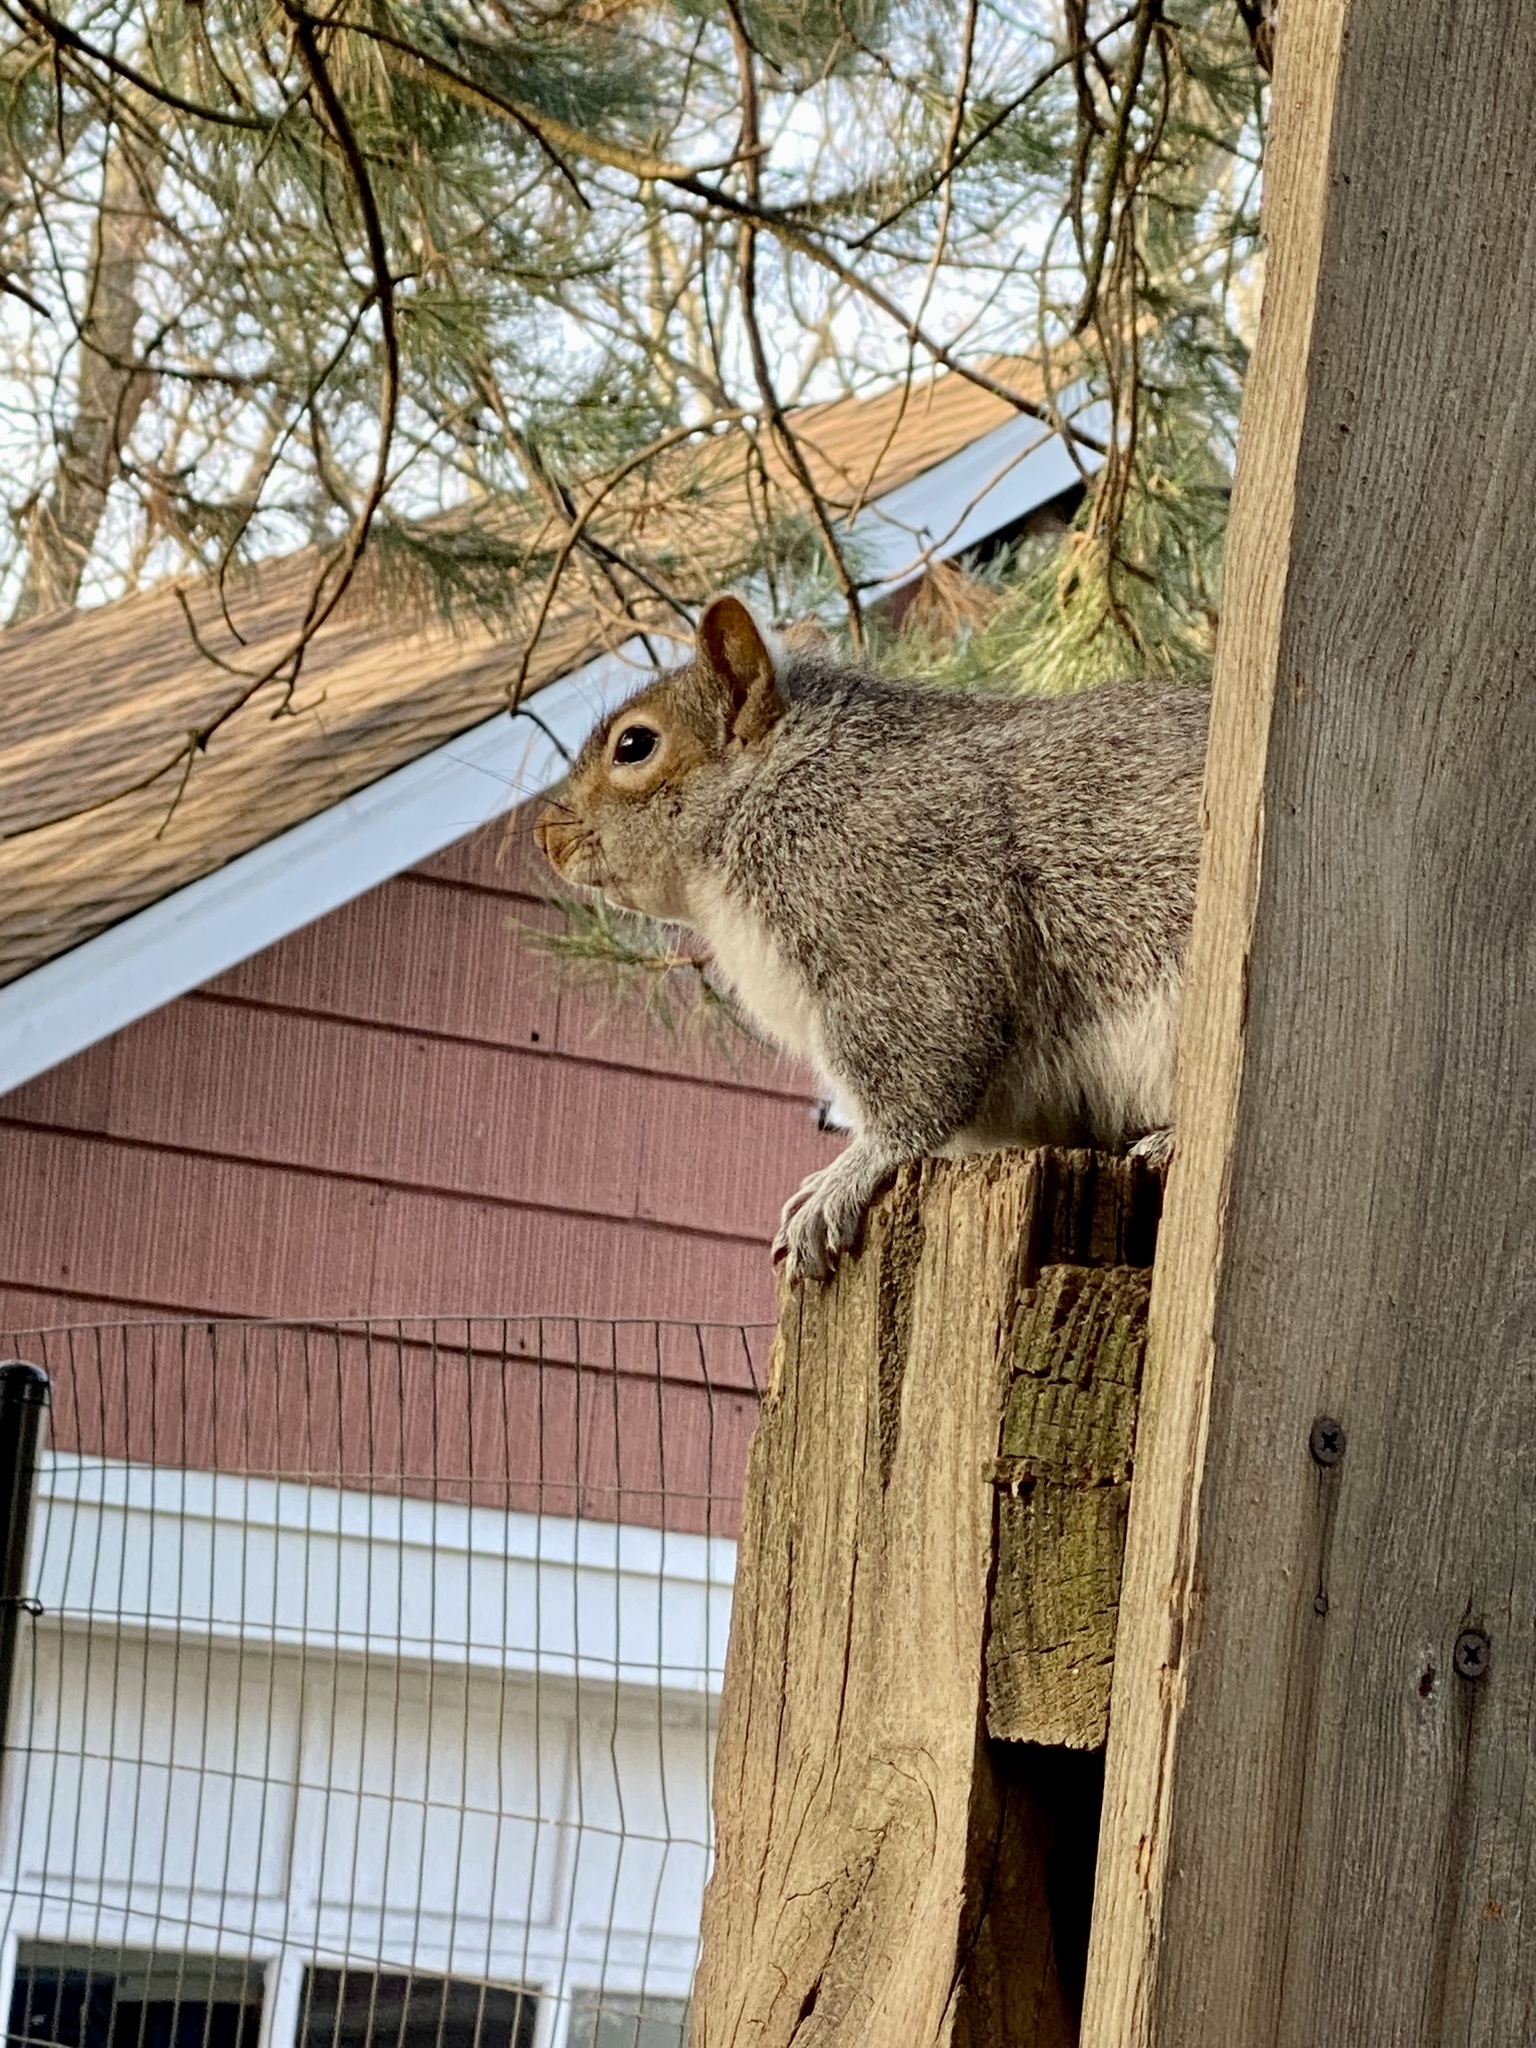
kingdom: Animalia
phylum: Chordata
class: Mammalia
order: Rodentia
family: Sciuridae
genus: Sciurus
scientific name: Sciurus carolinensis
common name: Eastern gray squirrel
